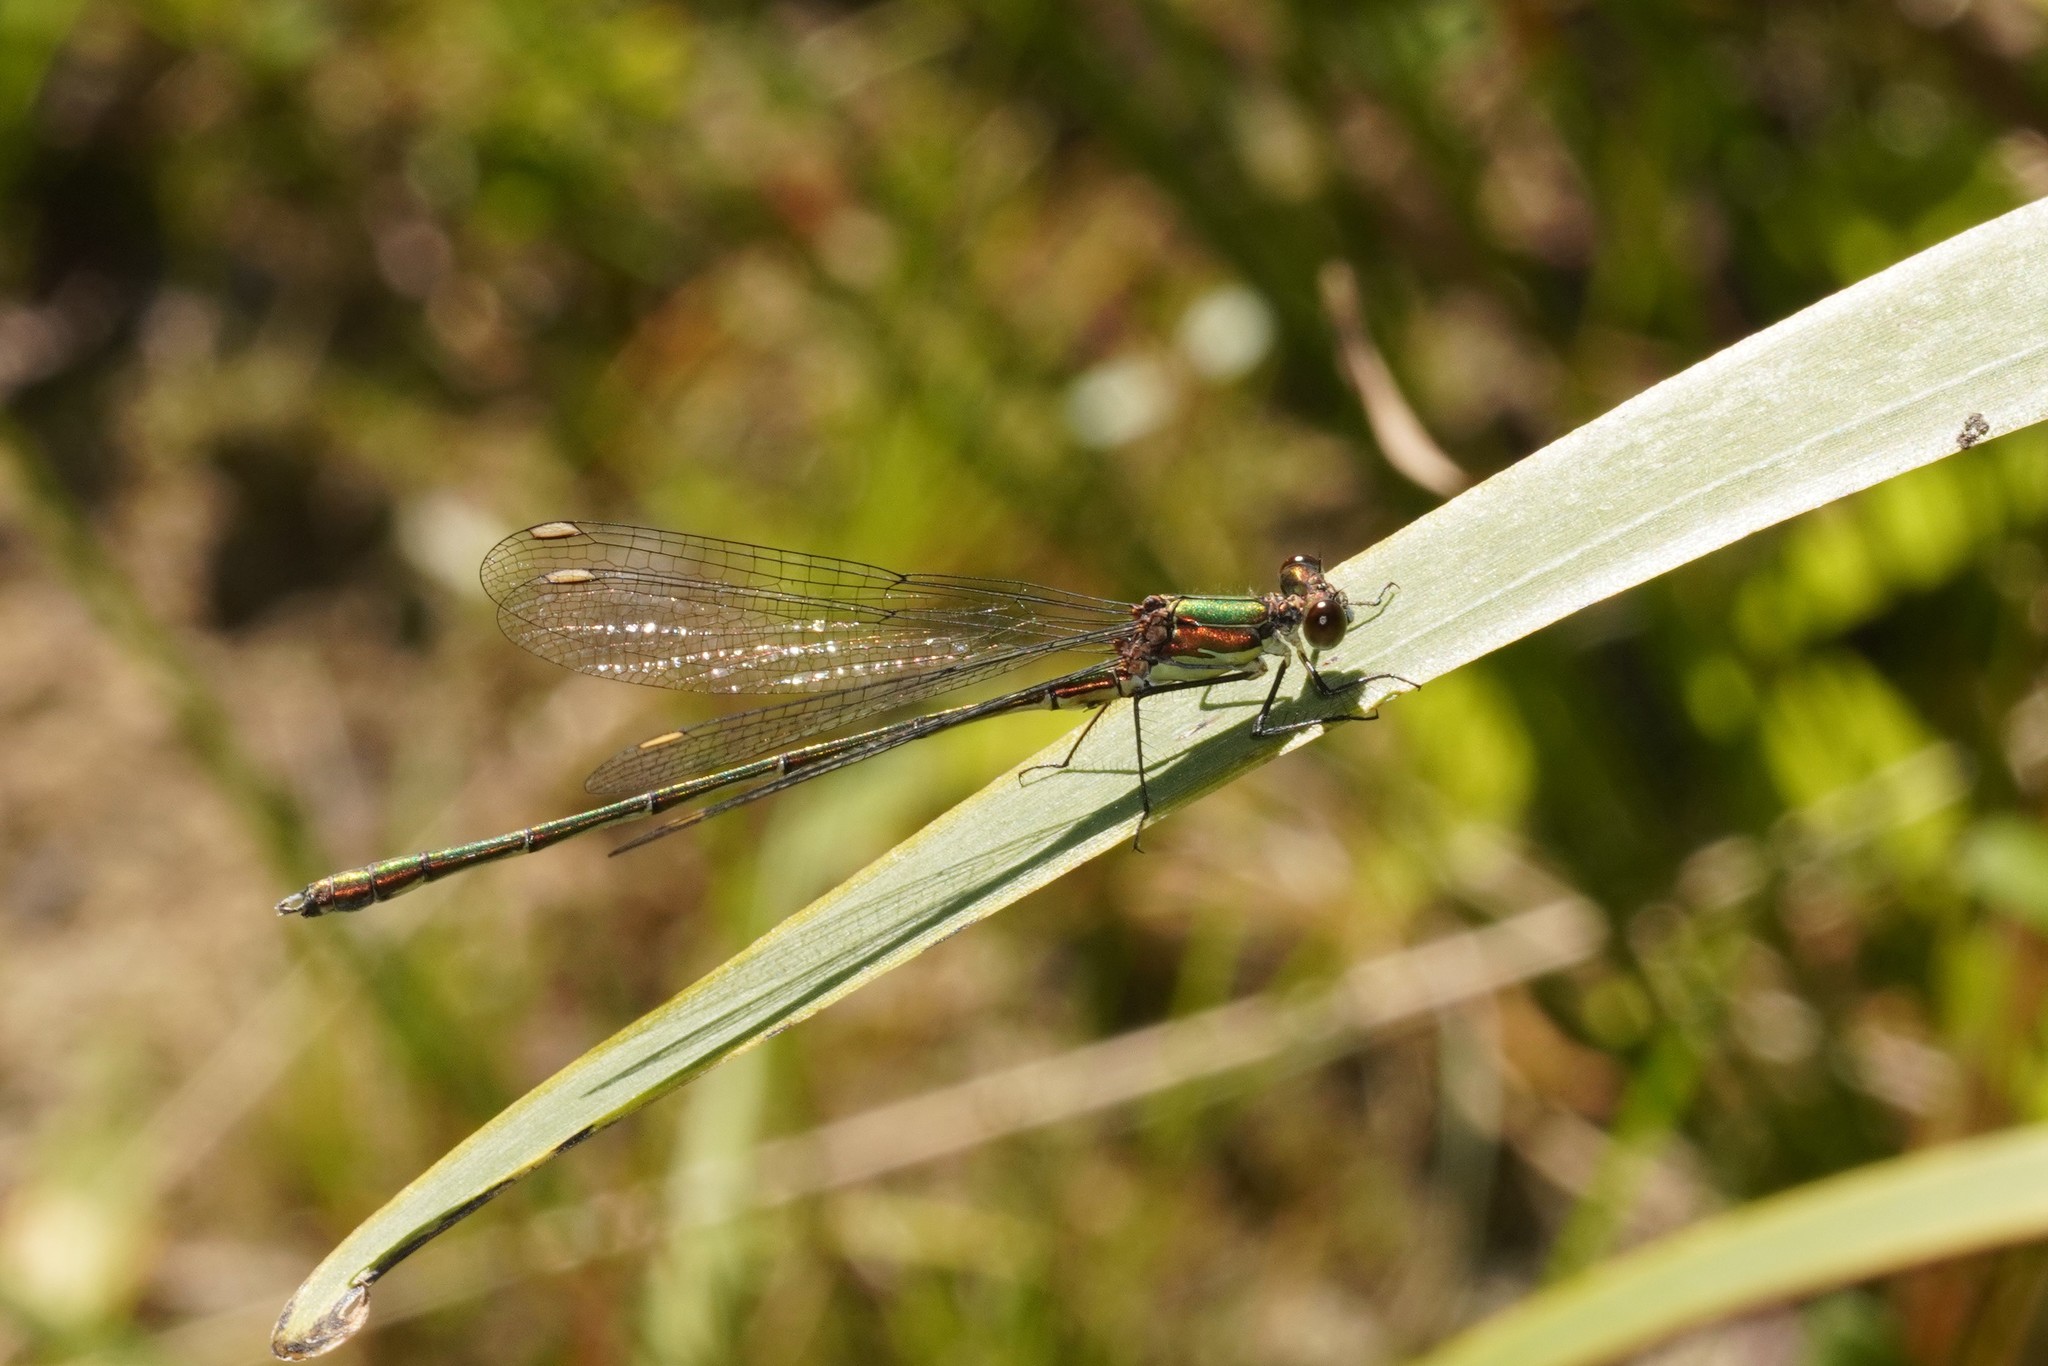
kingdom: Animalia
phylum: Arthropoda
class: Insecta
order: Odonata
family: Lestidae
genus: Chalcolestes
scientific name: Chalcolestes viridis
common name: Green emerald damselfly
